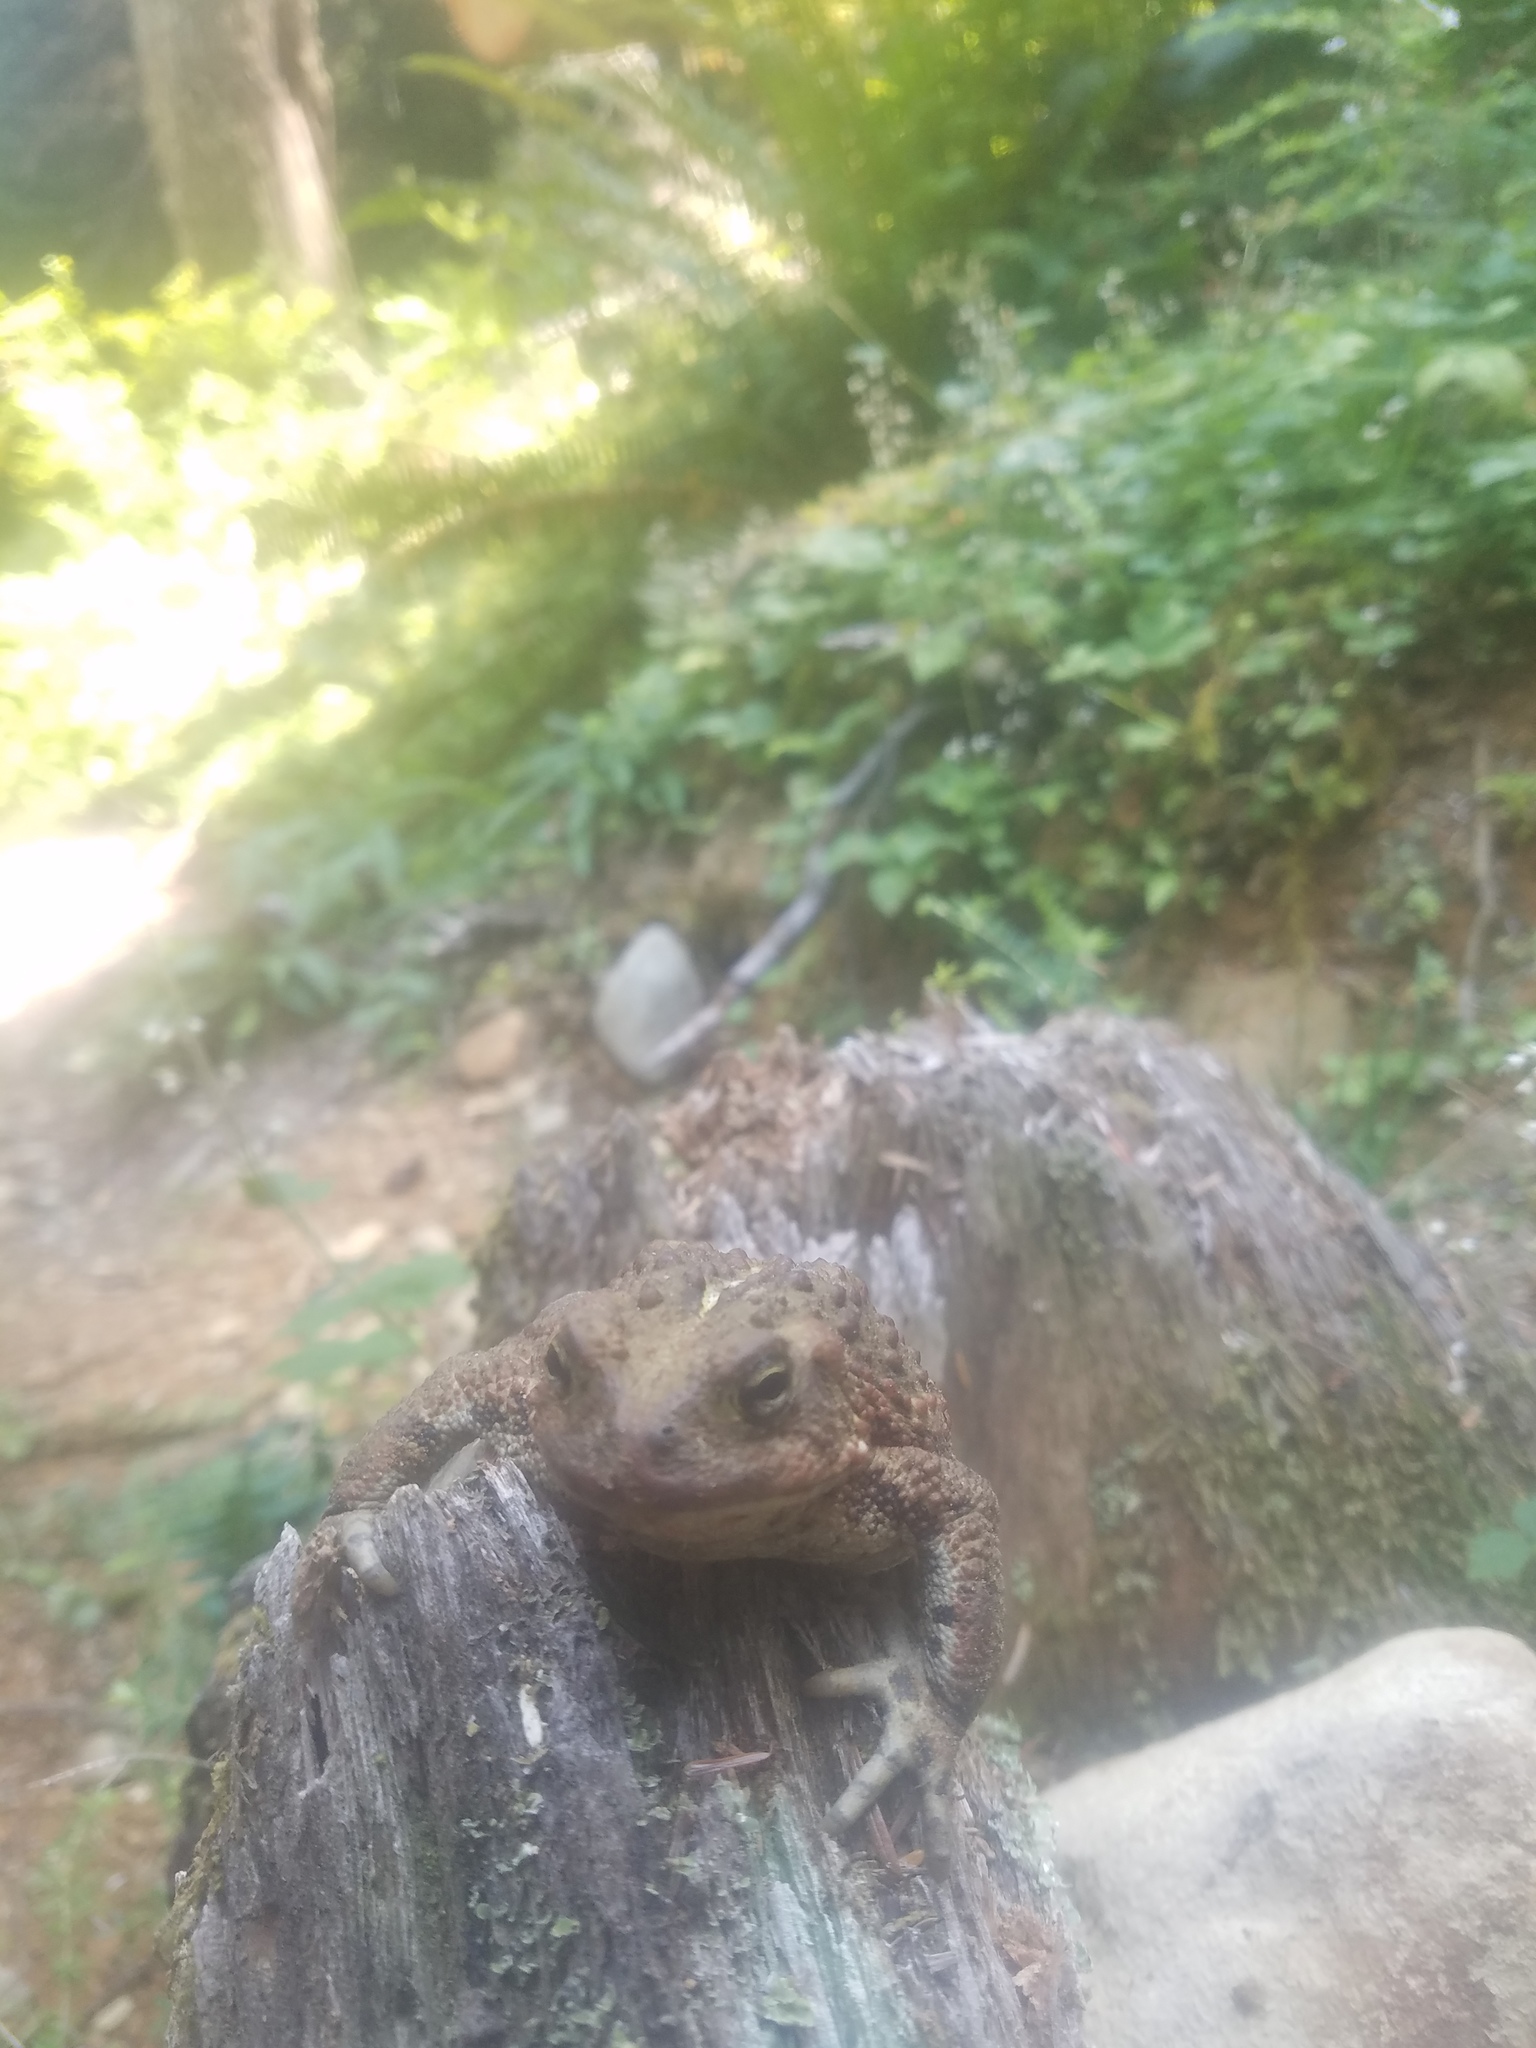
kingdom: Animalia
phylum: Chordata
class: Amphibia
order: Anura
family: Bufonidae
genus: Anaxyrus
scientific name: Anaxyrus boreas
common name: Western toad
